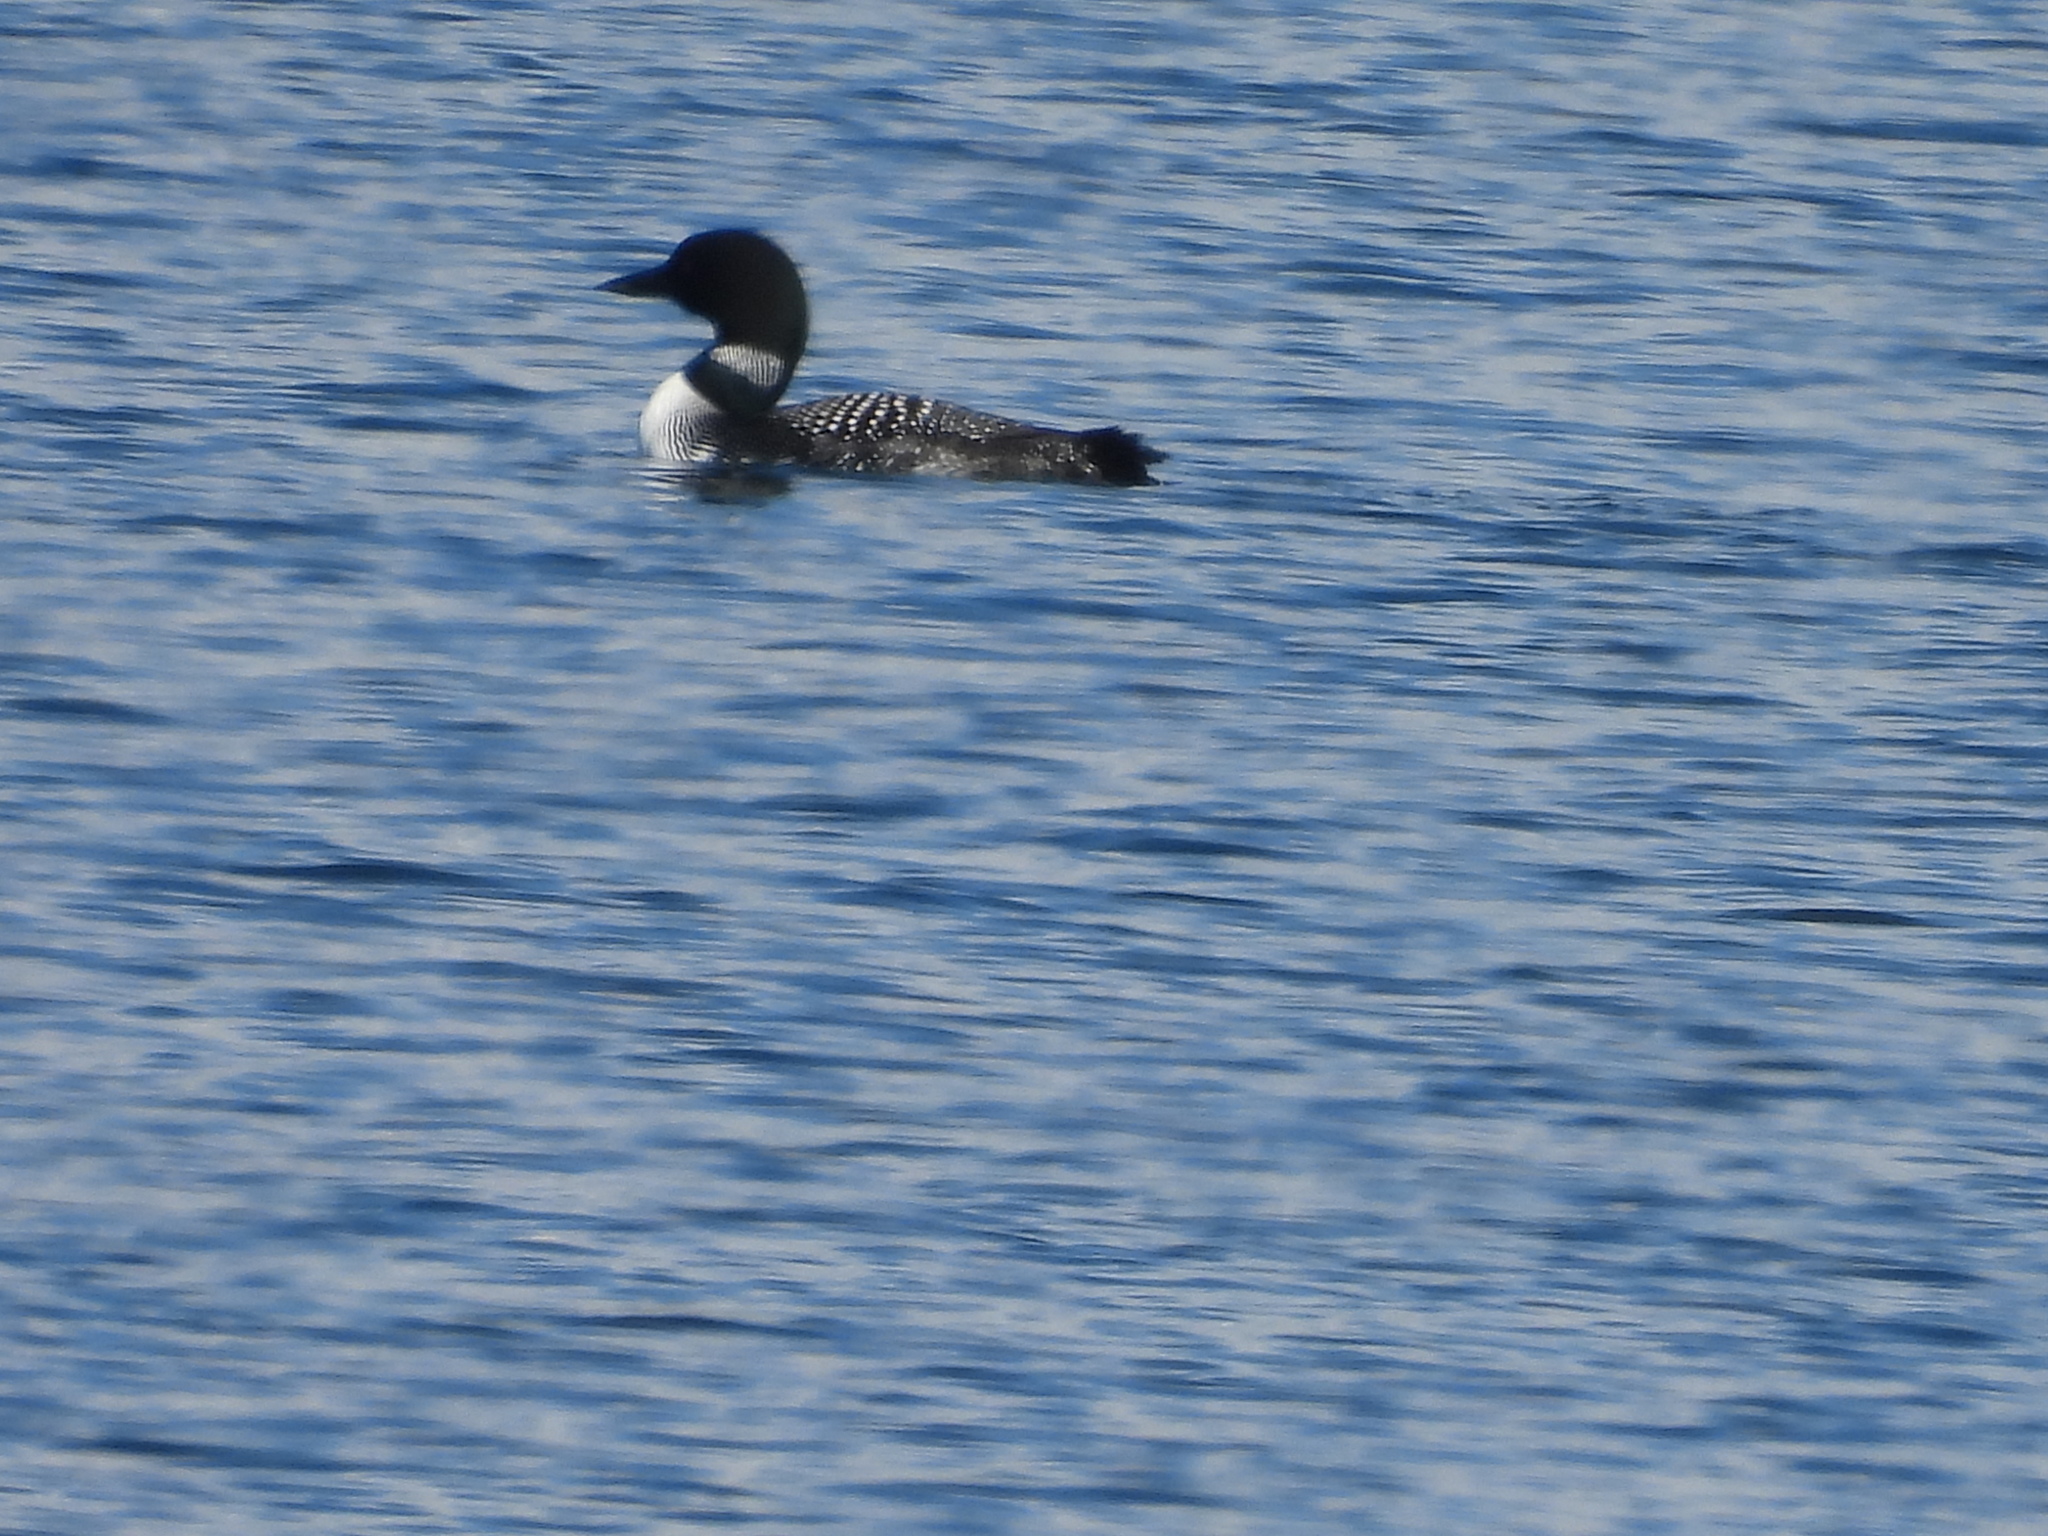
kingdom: Animalia
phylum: Chordata
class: Aves
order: Gaviiformes
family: Gaviidae
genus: Gavia
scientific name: Gavia immer
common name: Common loon
